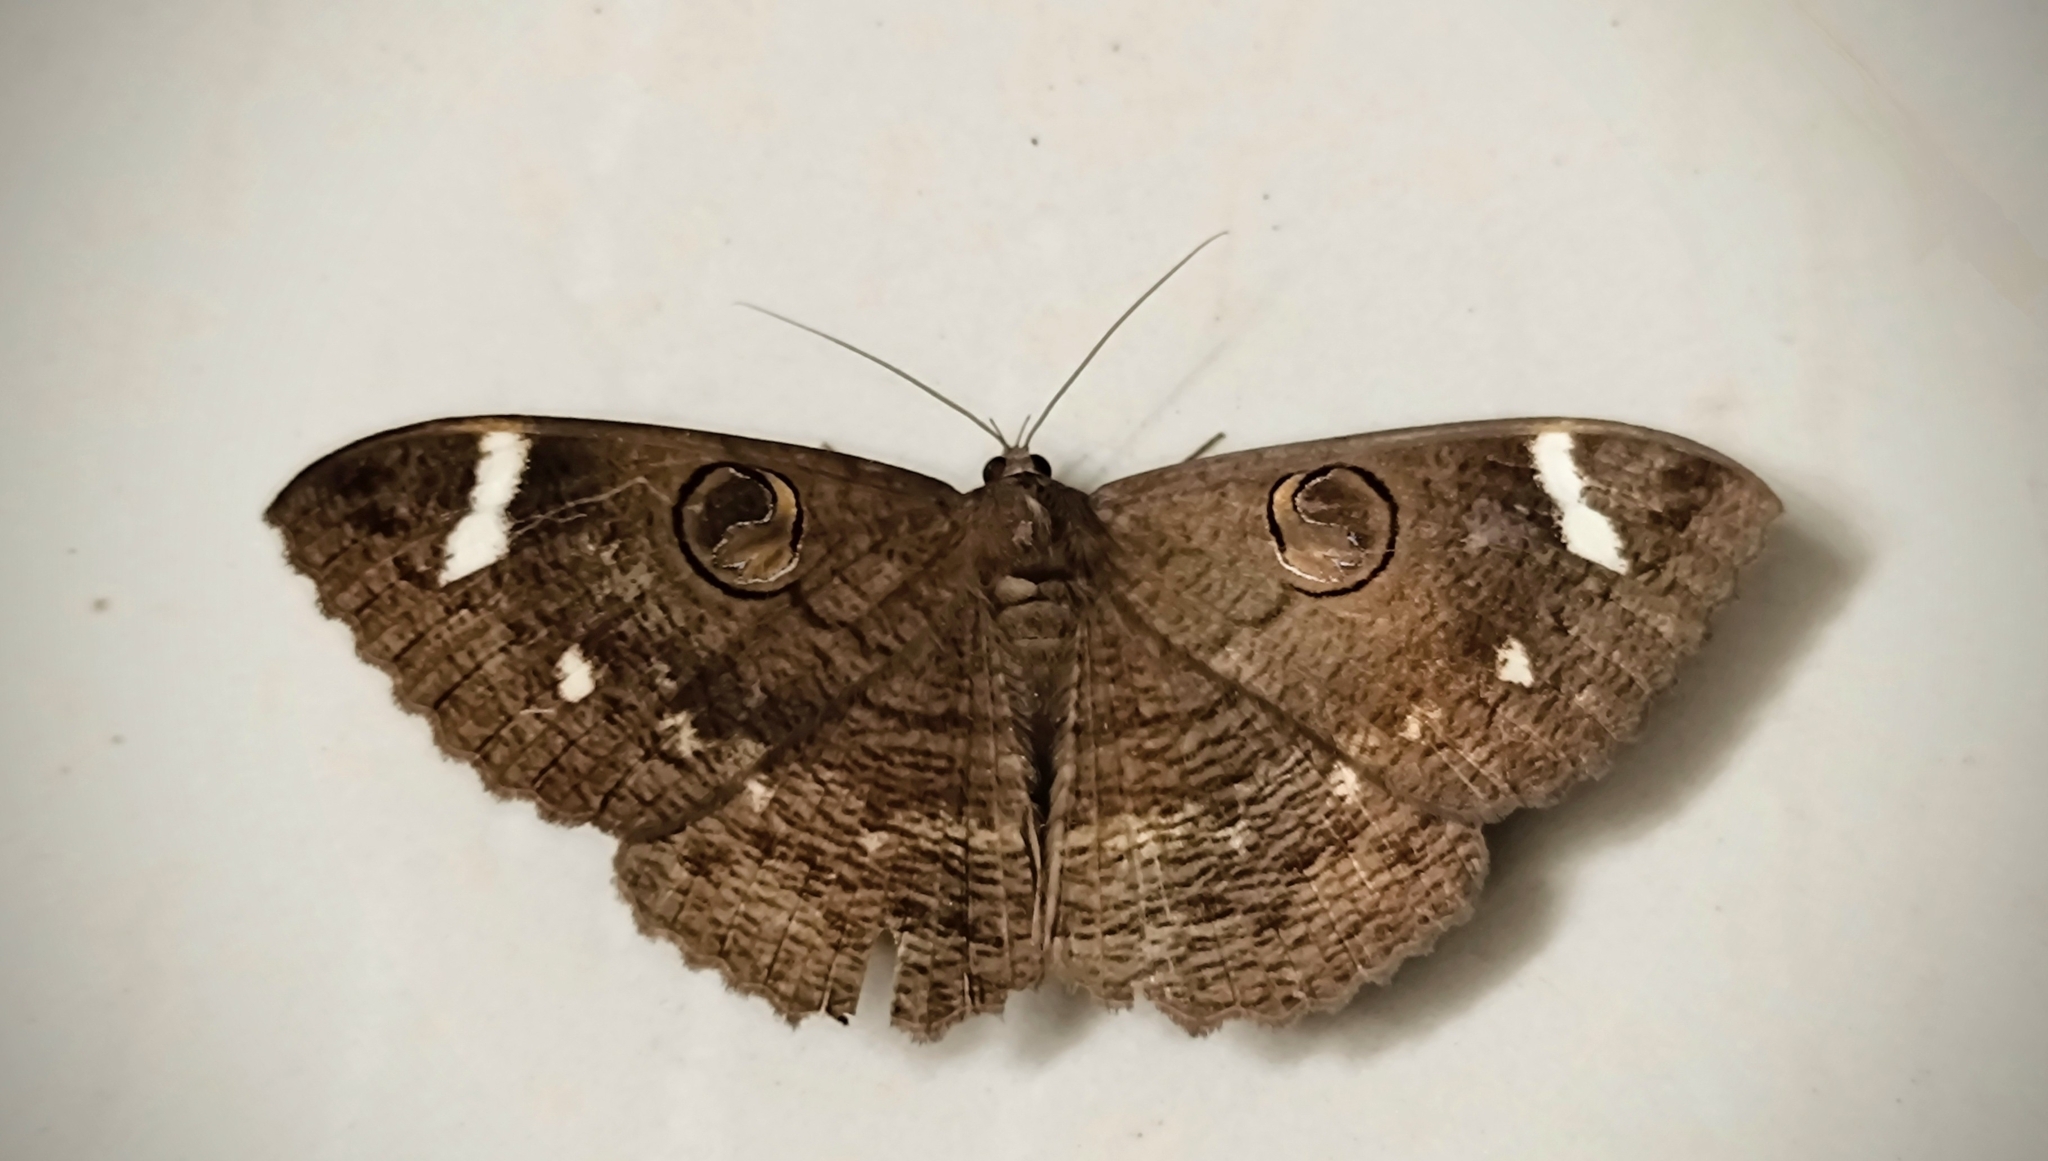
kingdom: Animalia
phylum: Arthropoda
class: Insecta
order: Lepidoptera
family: Erebidae
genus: Erebus
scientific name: Erebus hieroglyphica
